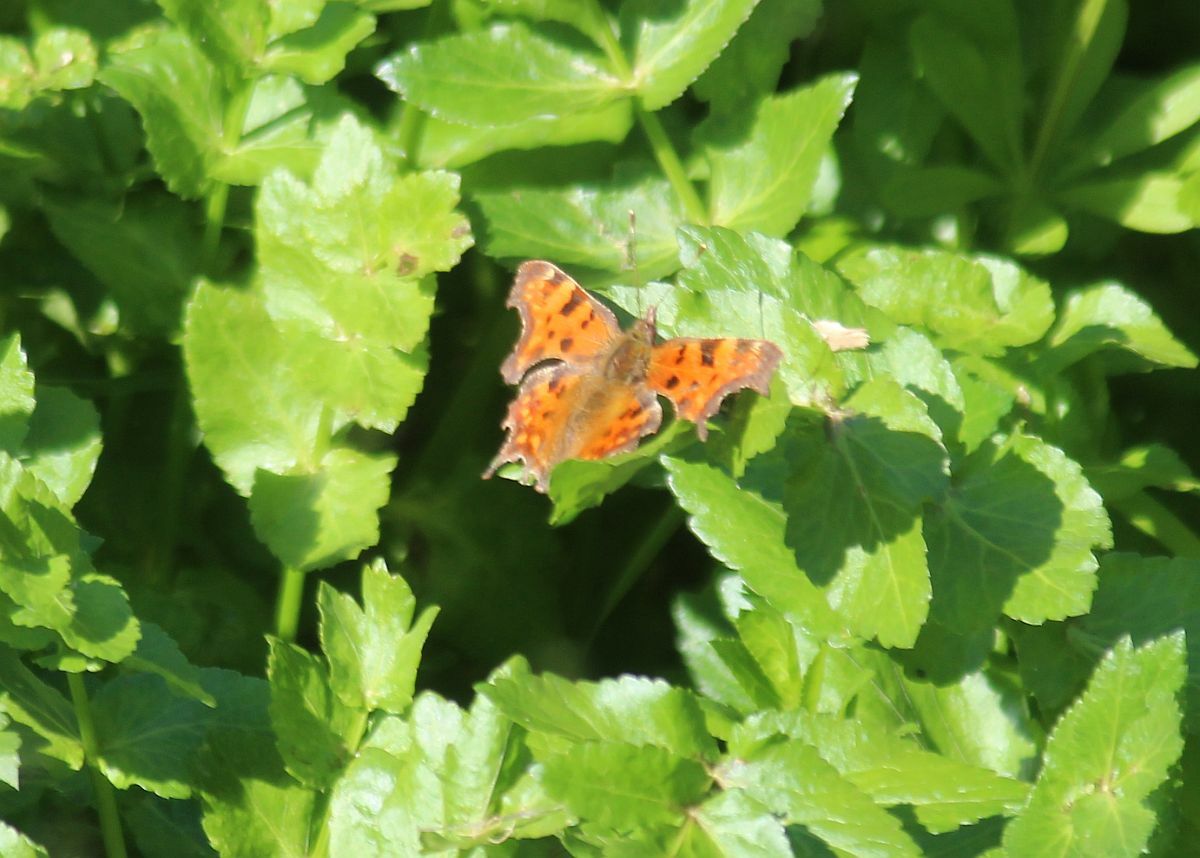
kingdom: Animalia
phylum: Arthropoda
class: Insecta
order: Lepidoptera
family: Nymphalidae
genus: Polygonia
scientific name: Polygonia c-album
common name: Comma
